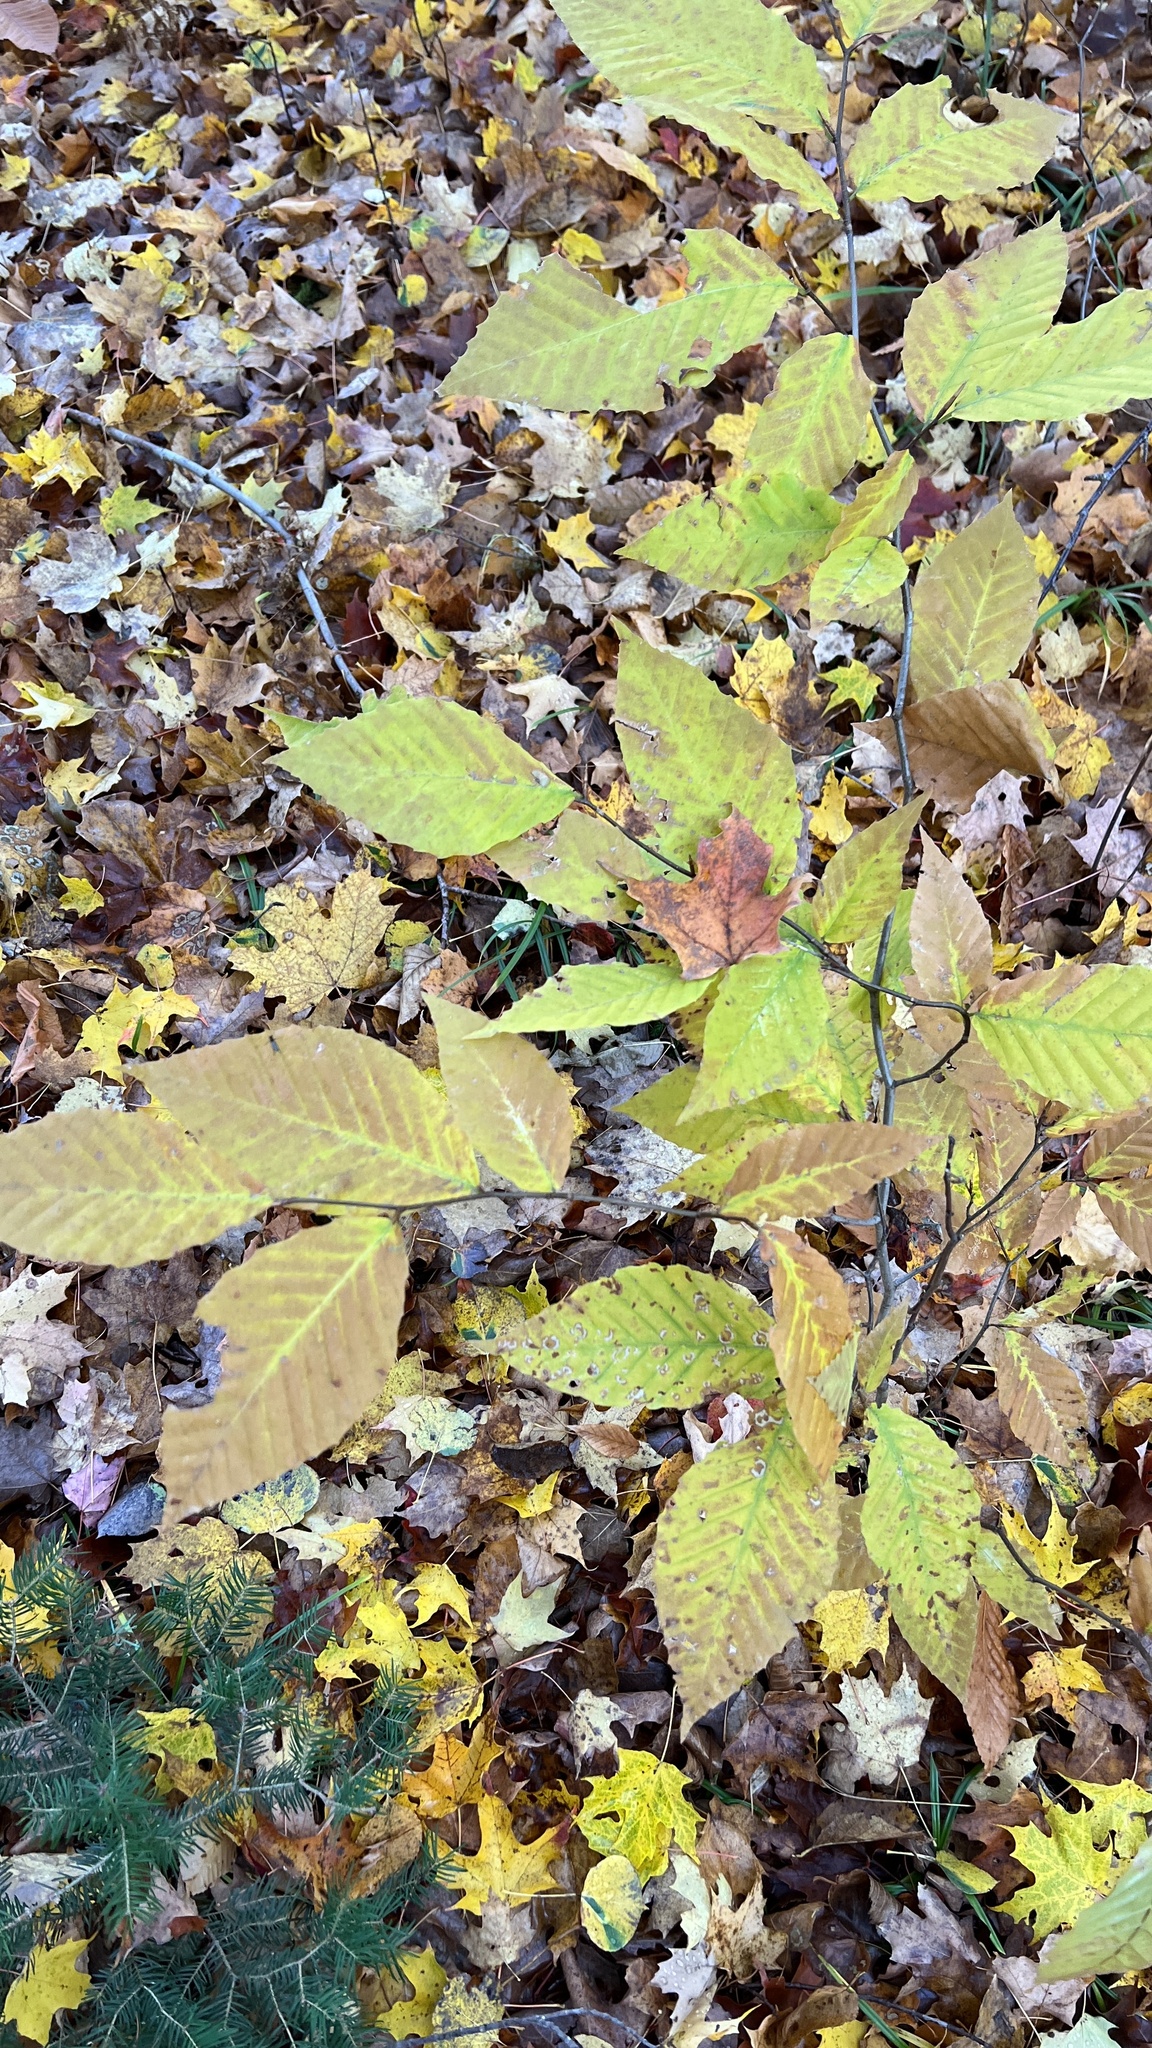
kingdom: Plantae
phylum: Tracheophyta
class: Magnoliopsida
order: Fagales
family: Fagaceae
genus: Fagus
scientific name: Fagus grandifolia
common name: American beech
